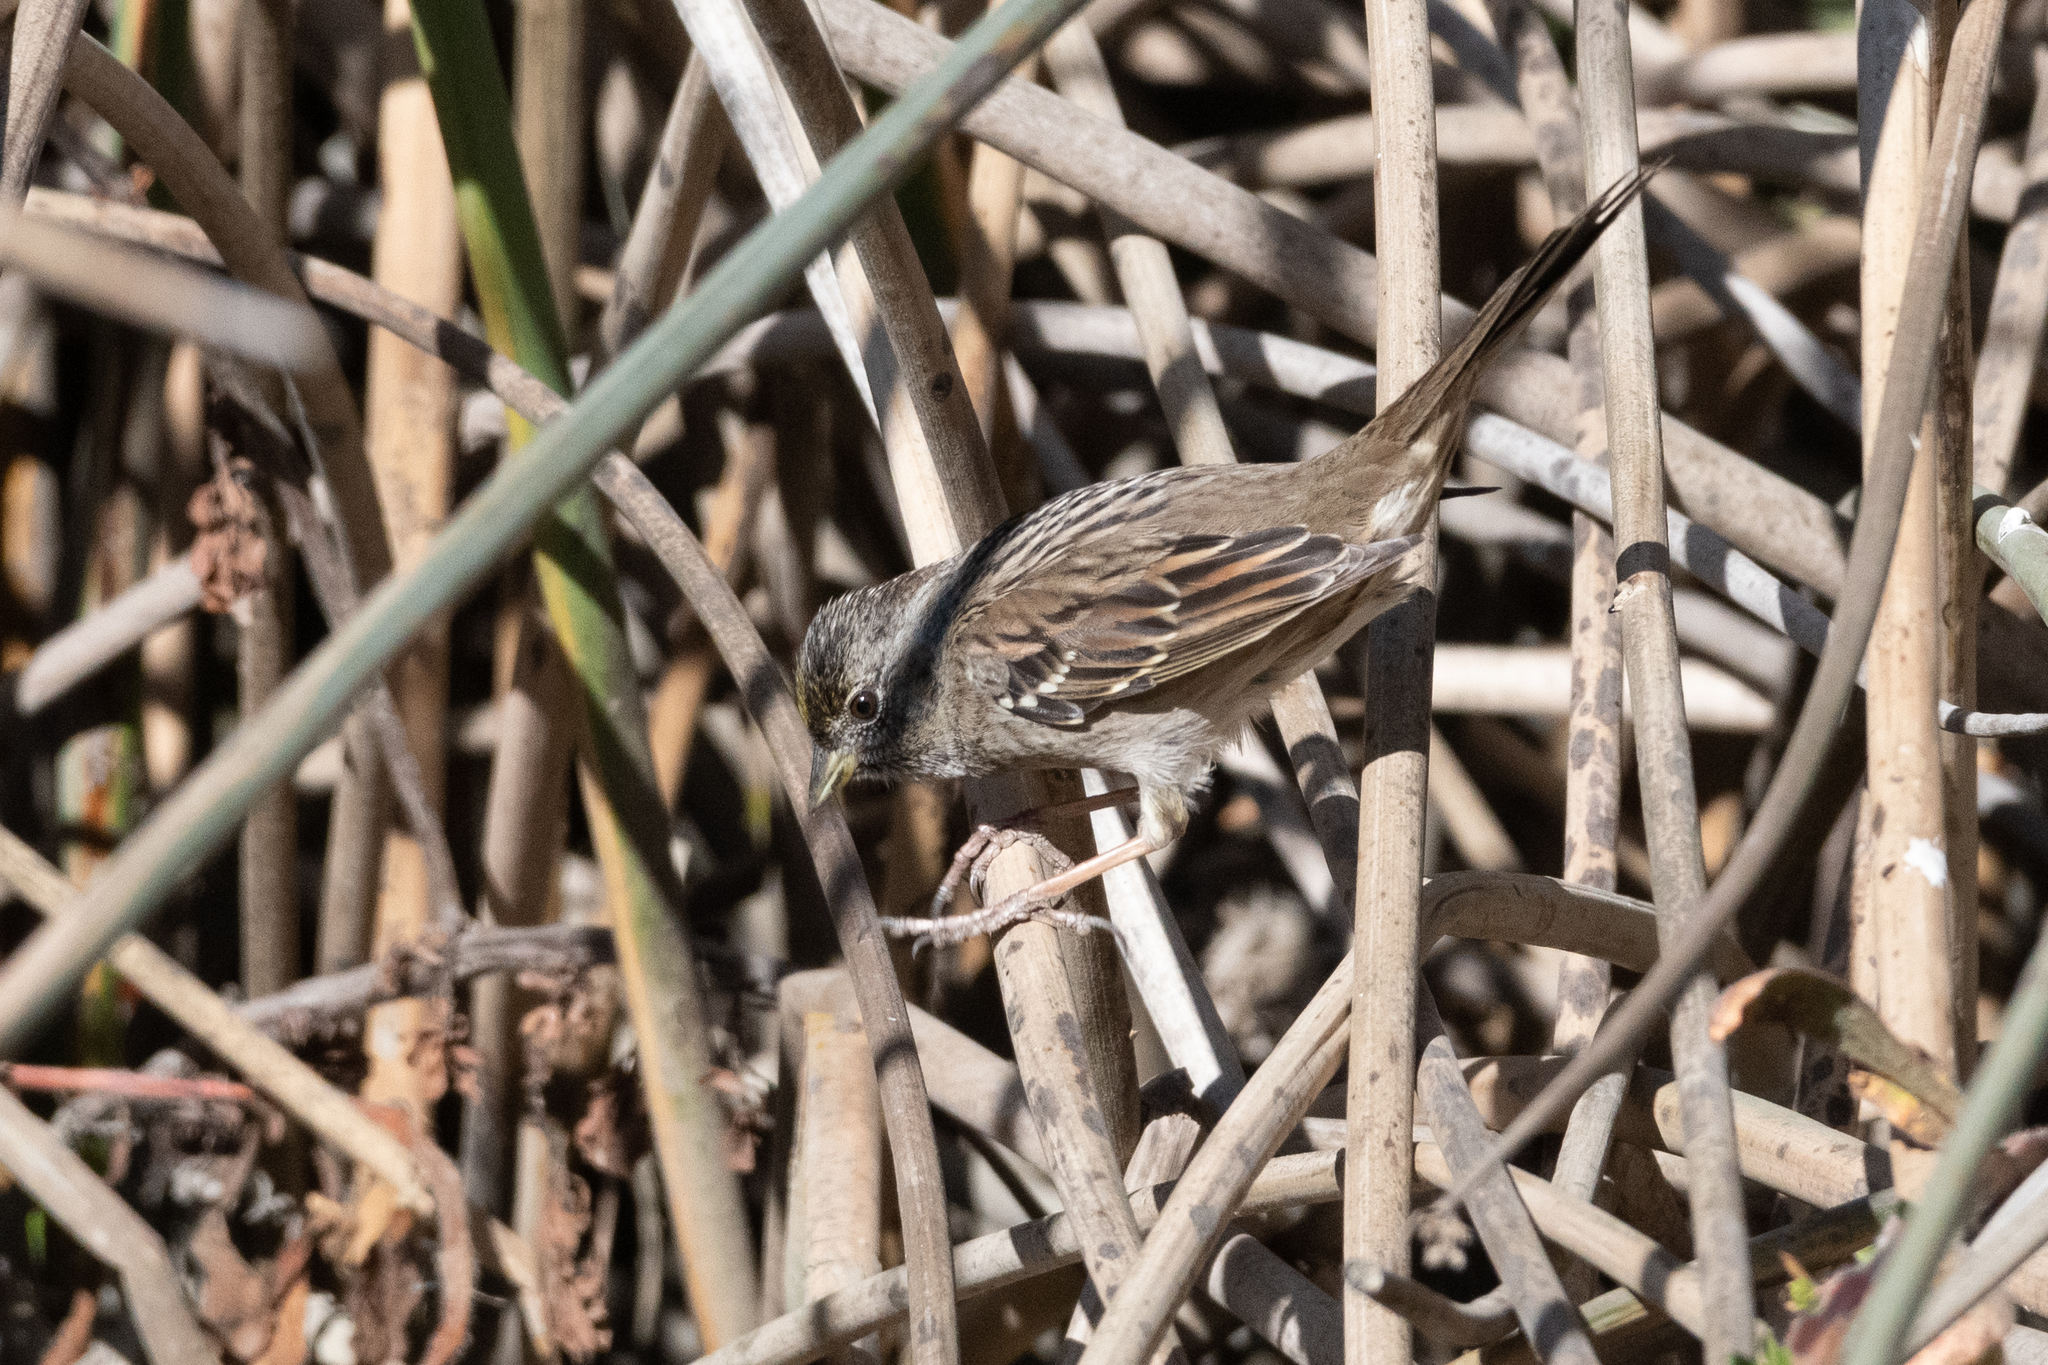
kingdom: Animalia
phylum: Chordata
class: Aves
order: Passeriformes
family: Passerellidae
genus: Zonotrichia
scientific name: Zonotrichia atricapilla
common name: Golden-crowned sparrow
